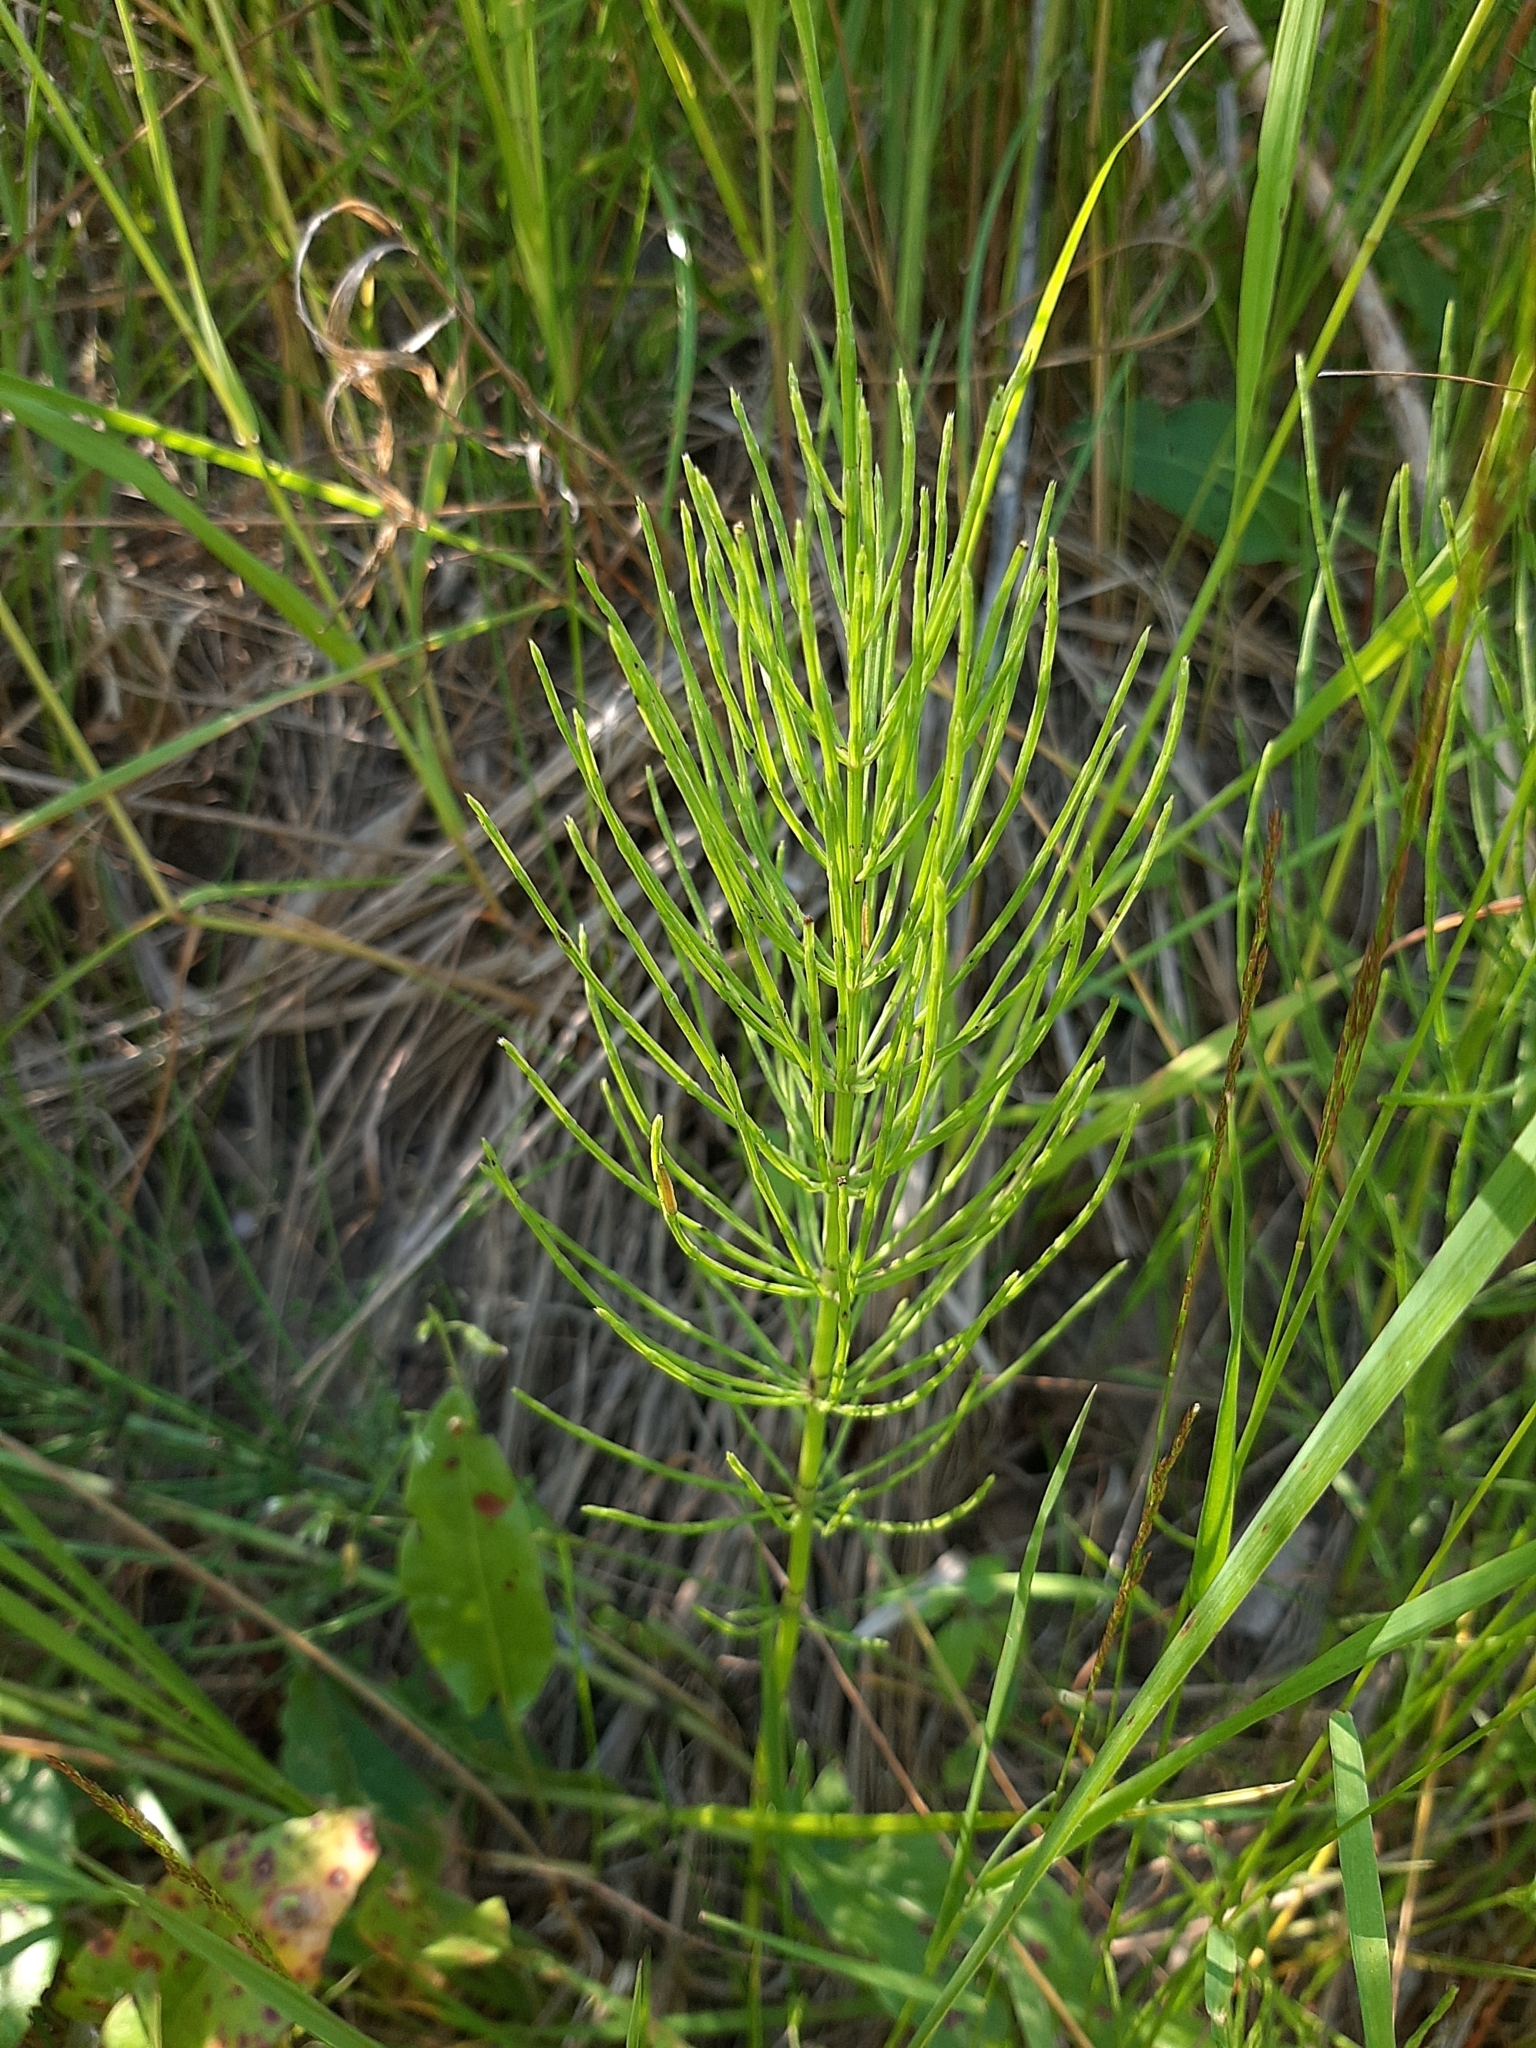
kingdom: Plantae
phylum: Tracheophyta
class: Polypodiopsida
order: Equisetales
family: Equisetaceae
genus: Equisetum
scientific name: Equisetum arvense
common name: Field horsetail
